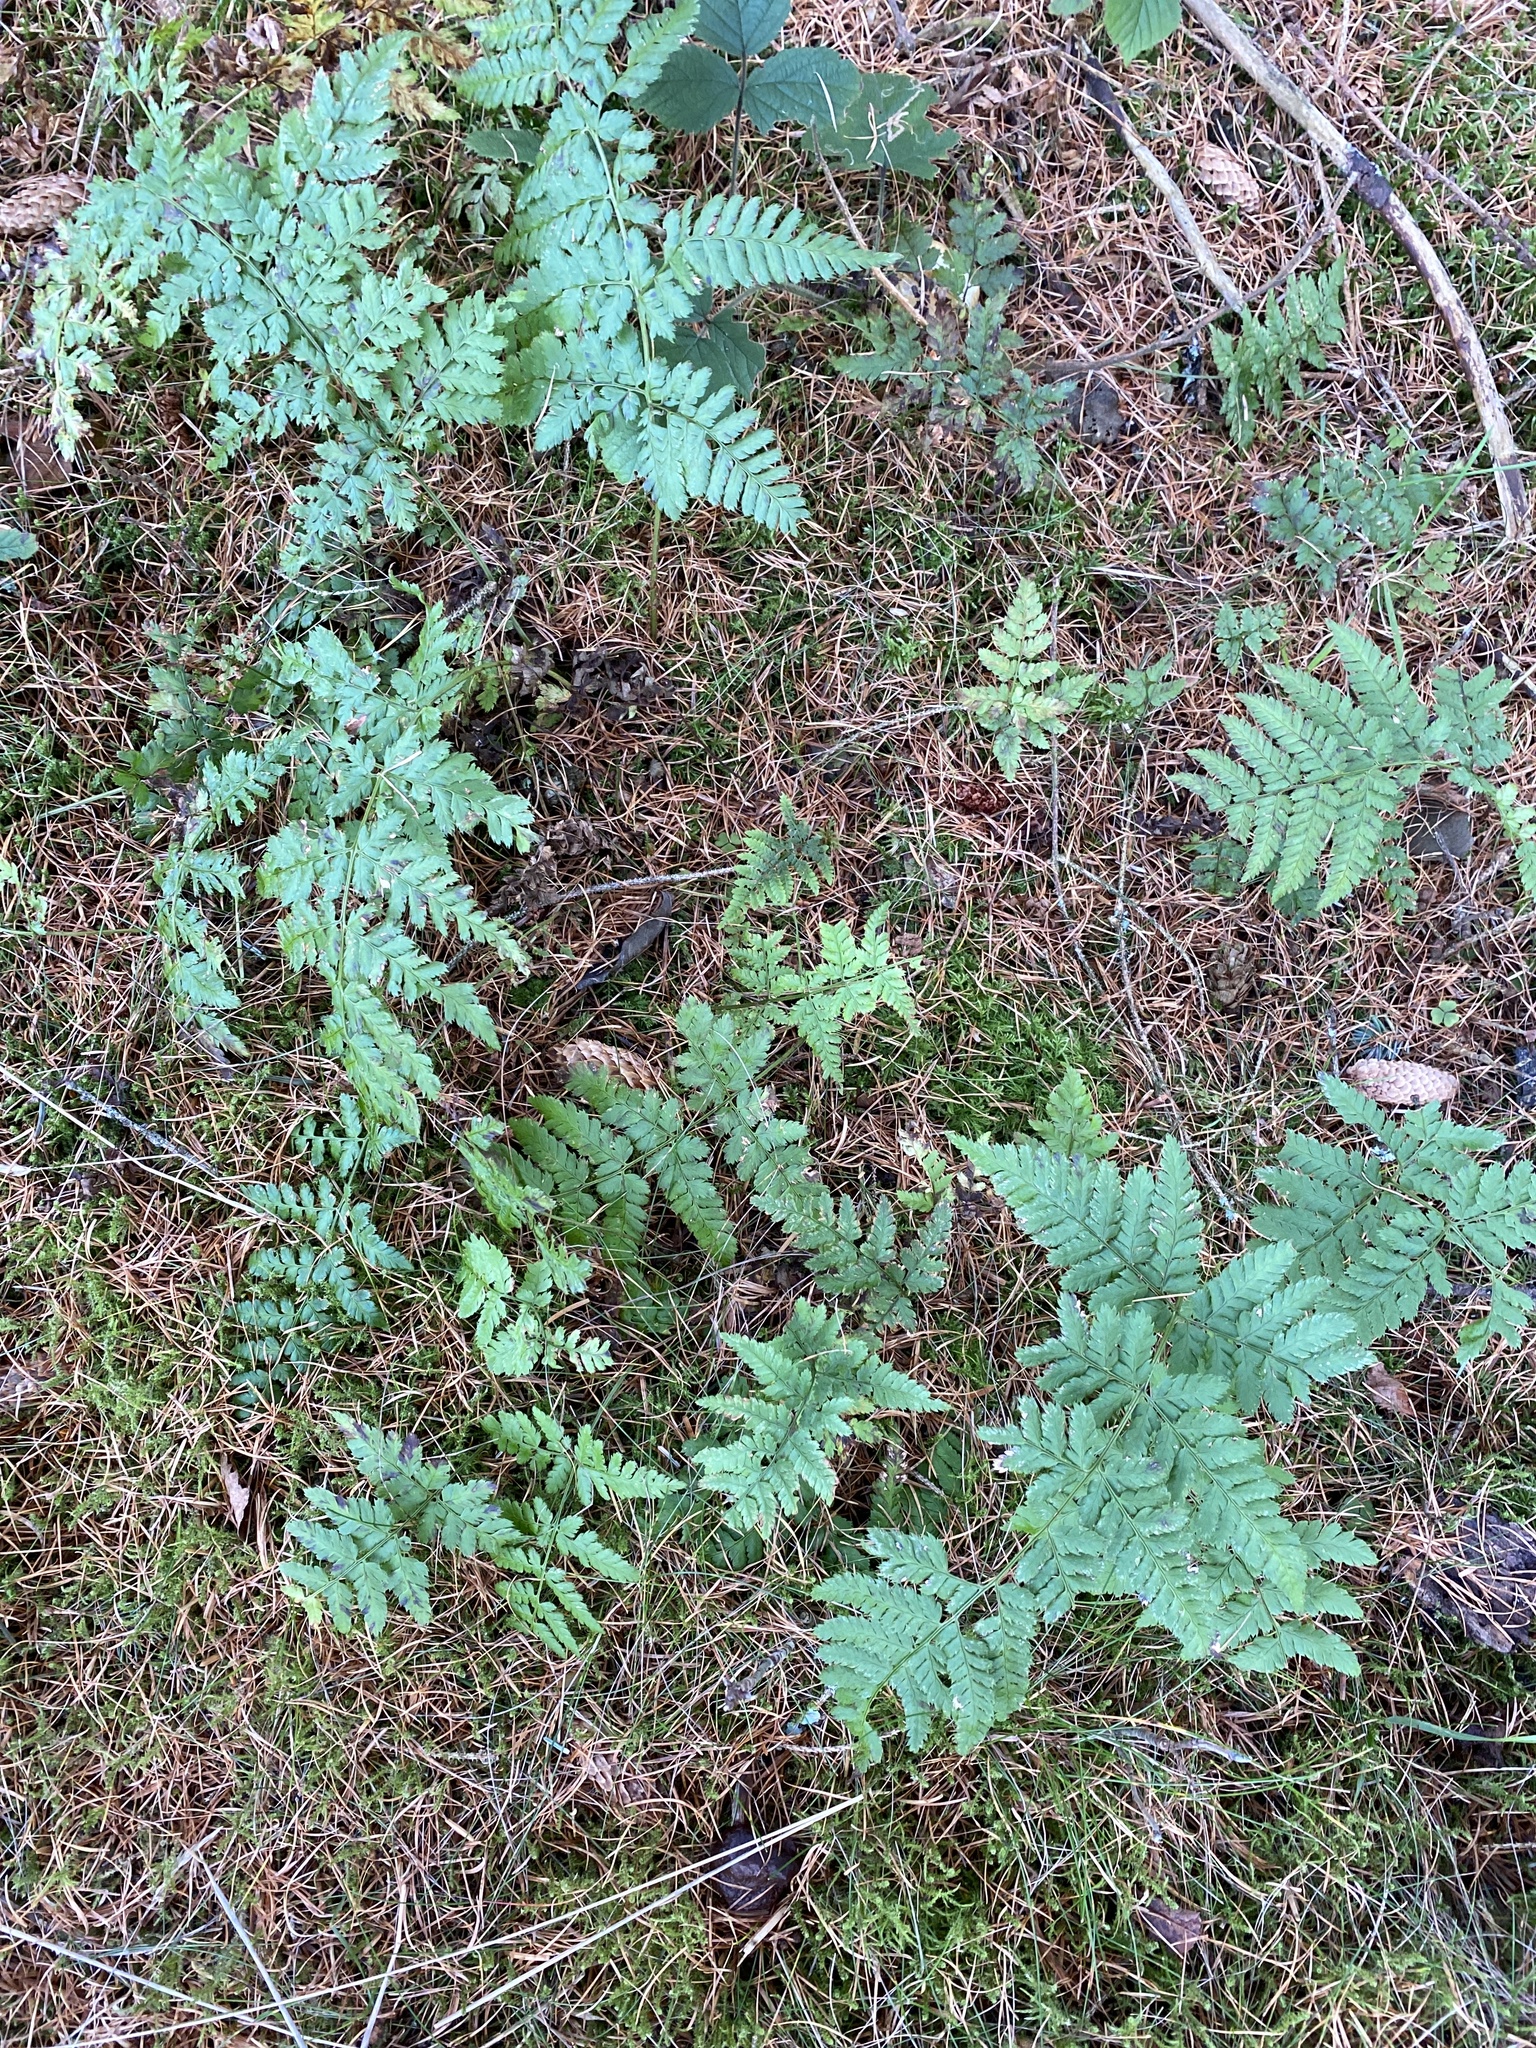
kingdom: Plantae
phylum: Tracheophyta
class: Polypodiopsida
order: Polypodiales
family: Dryopteridaceae
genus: Dryopteris
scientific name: Dryopteris dilatata
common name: Broad buckler-fern
